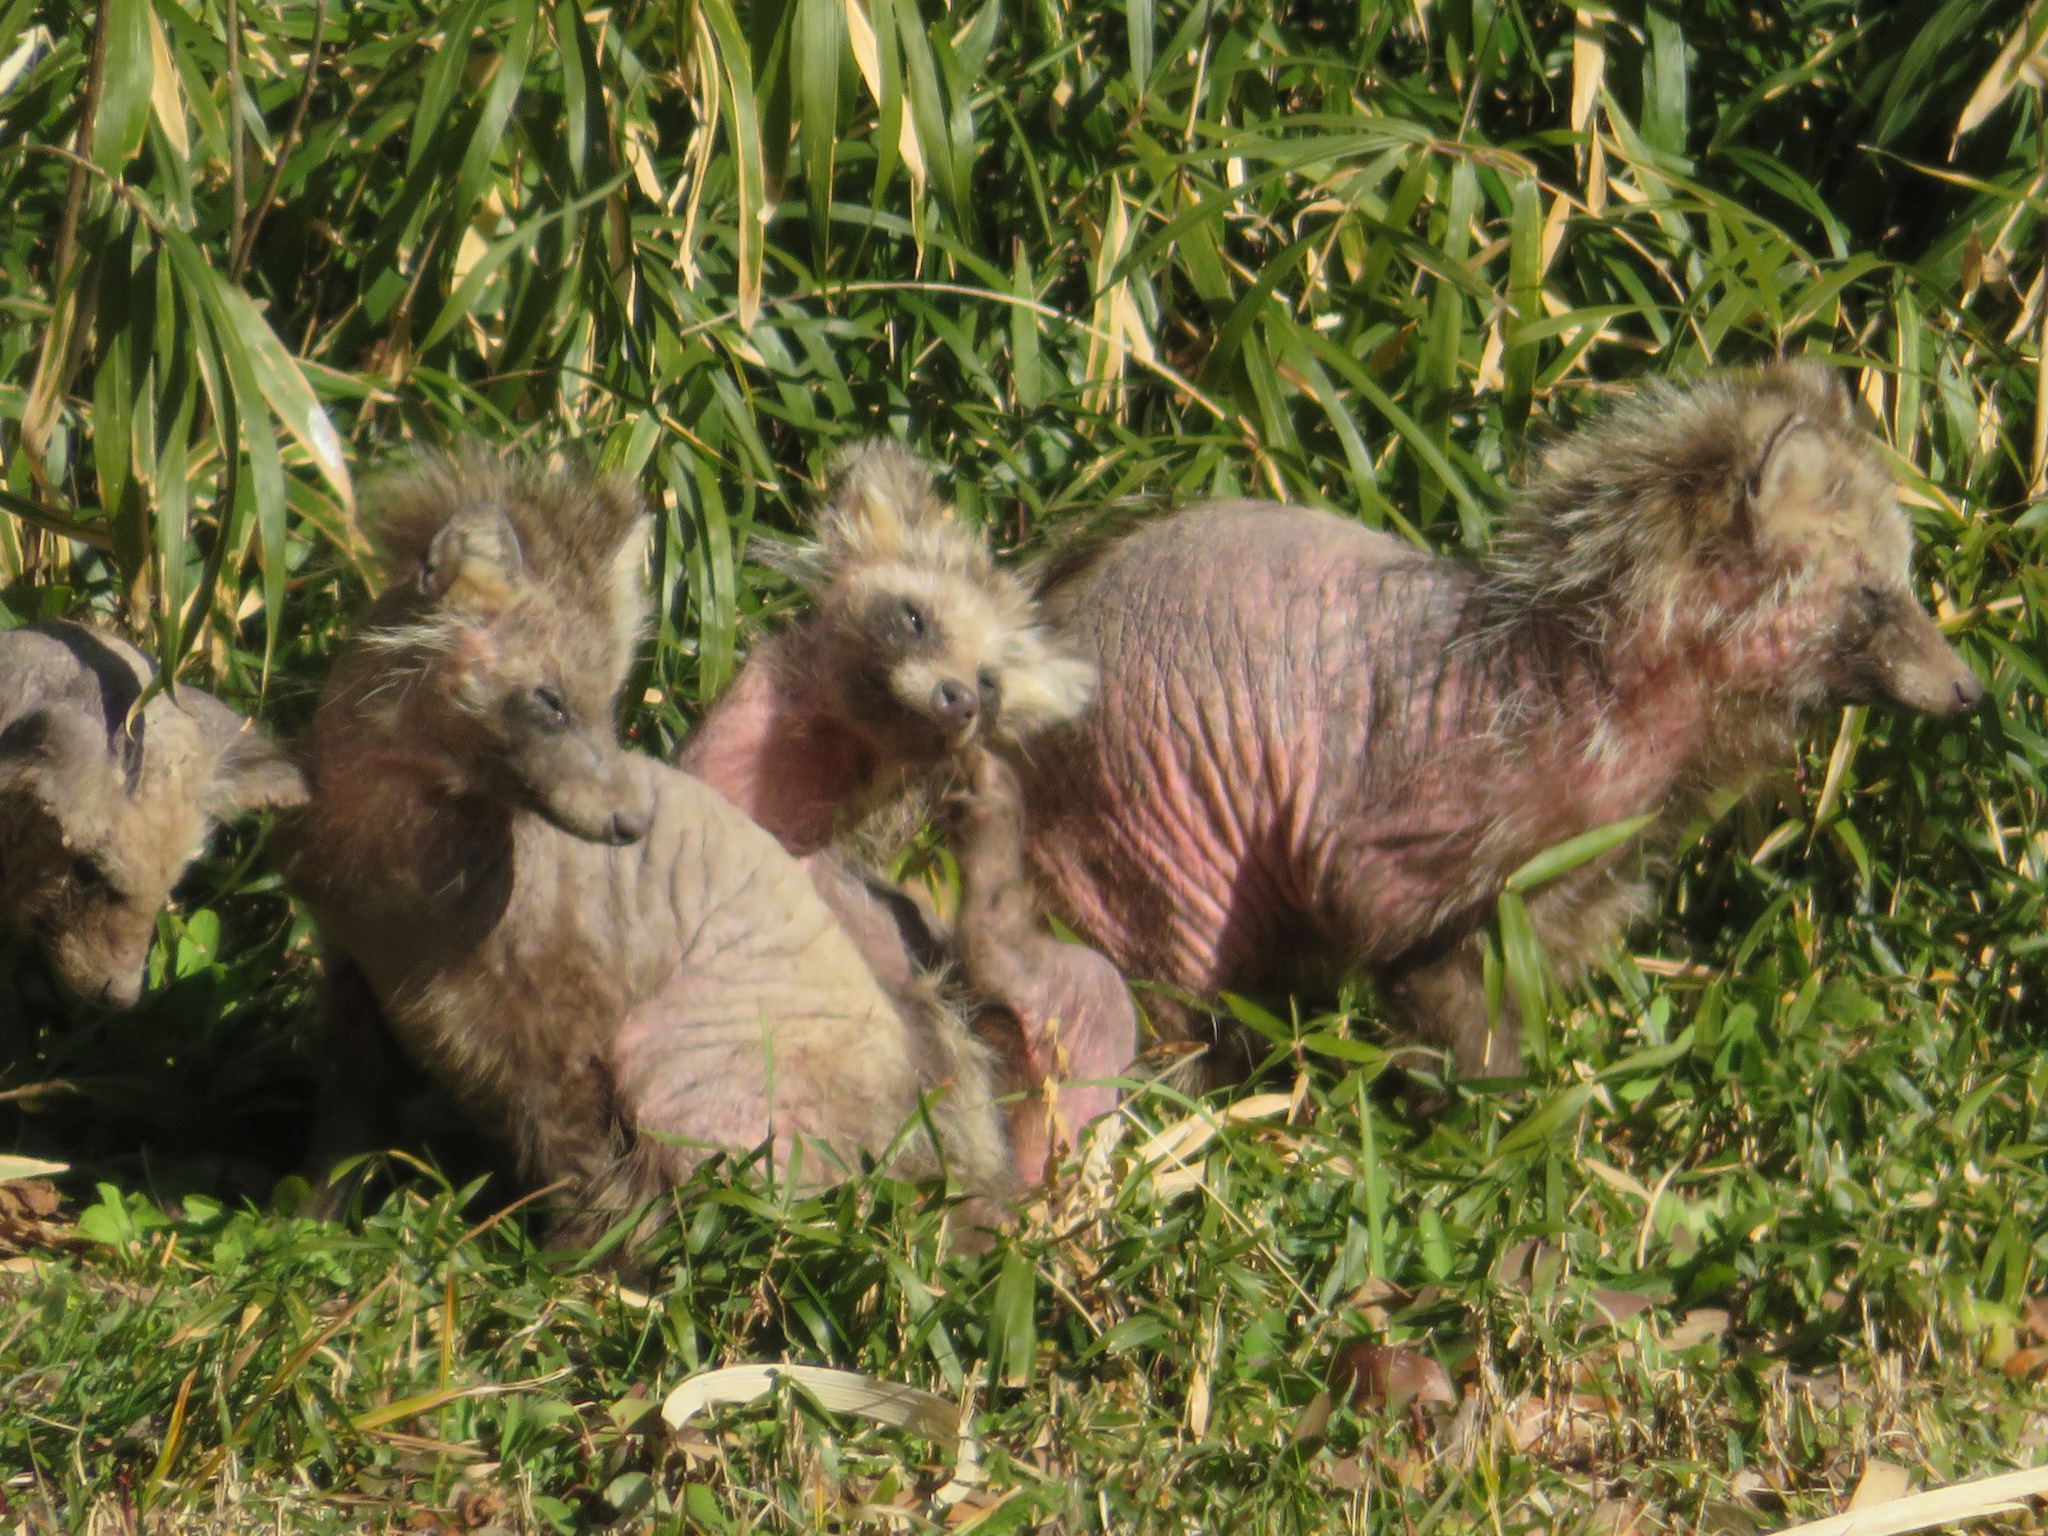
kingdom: Animalia
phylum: Chordata
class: Mammalia
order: Carnivora
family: Canidae
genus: Nyctereutes
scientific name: Nyctereutes
